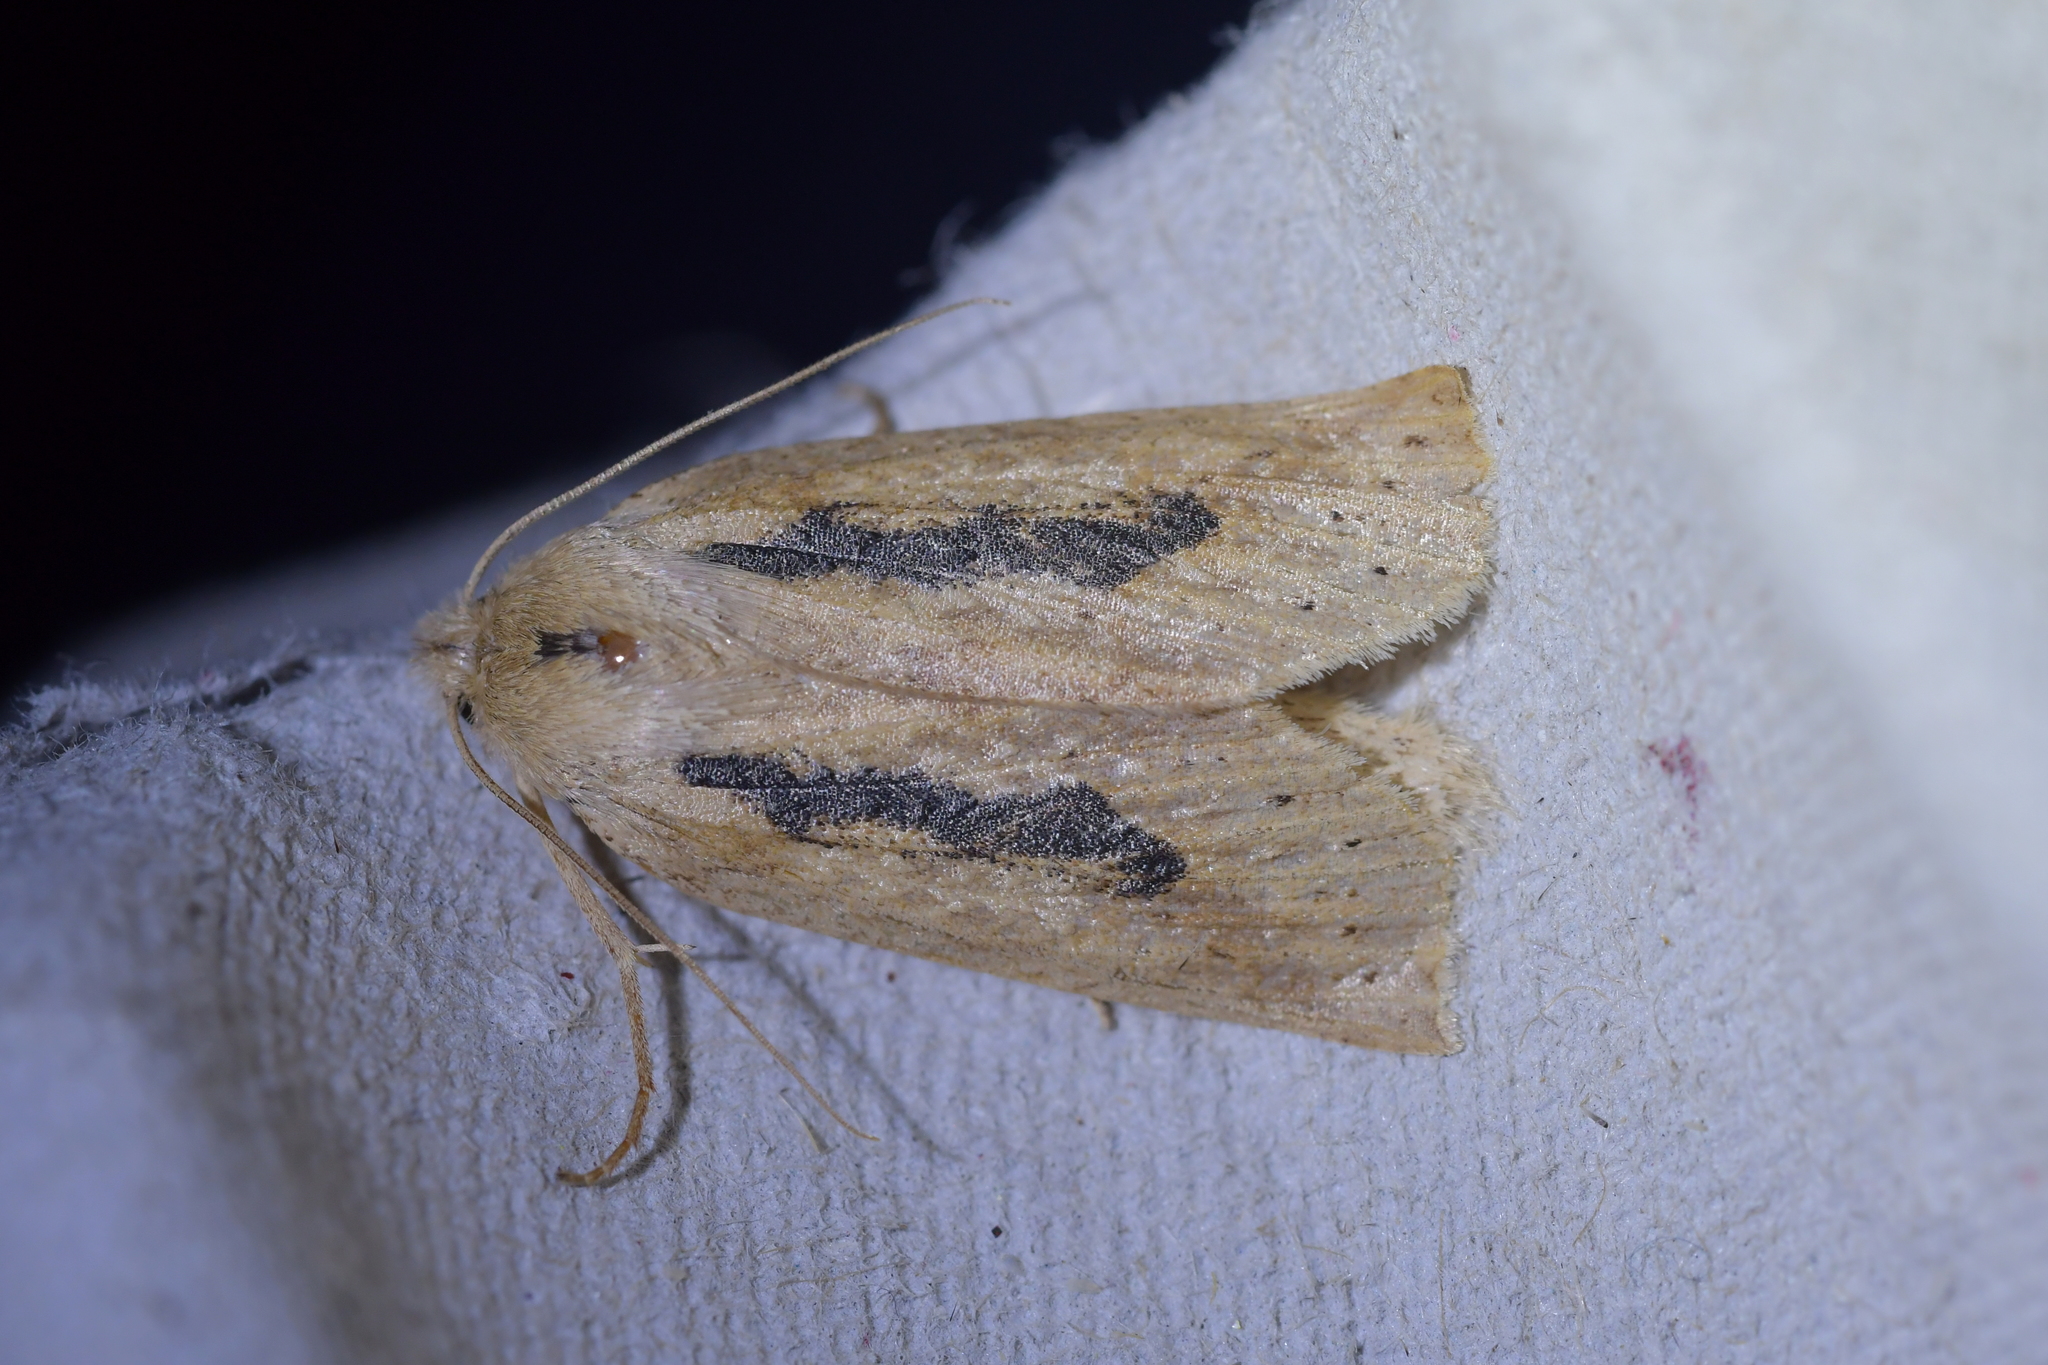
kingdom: Animalia
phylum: Arthropoda
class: Insecta
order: Lepidoptera
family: Geometridae
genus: Declana
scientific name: Declana leptomera
